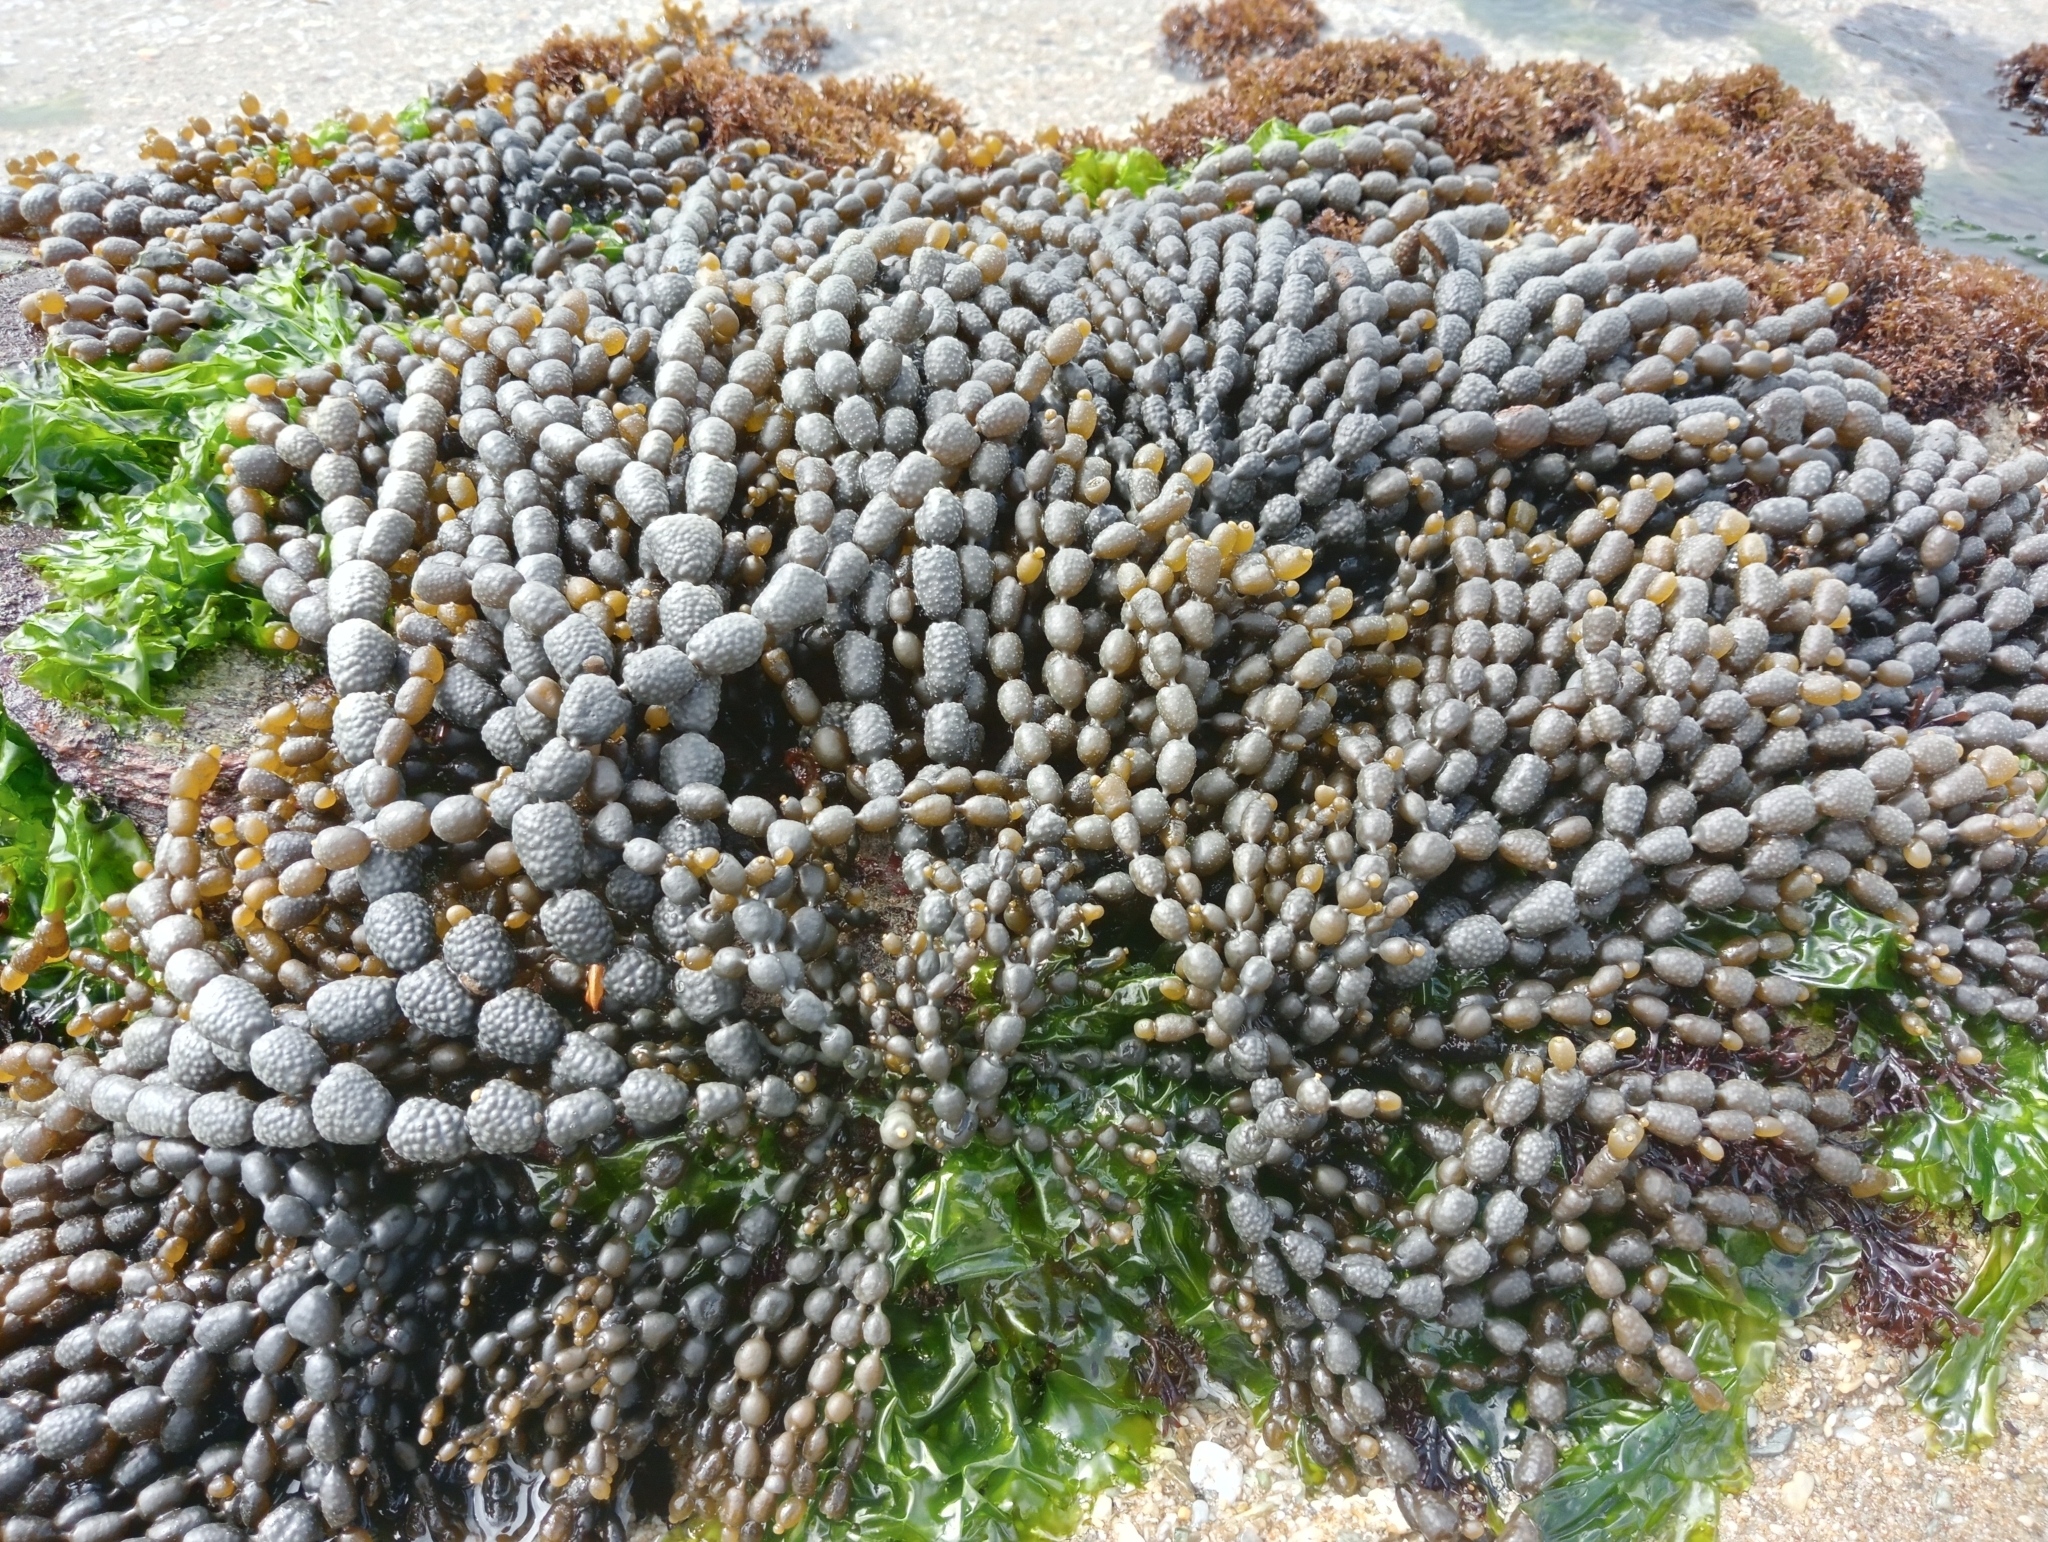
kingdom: Chromista
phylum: Ochrophyta
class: Phaeophyceae
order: Fucales
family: Hormosiraceae
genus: Hormosira
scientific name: Hormosira banksii
